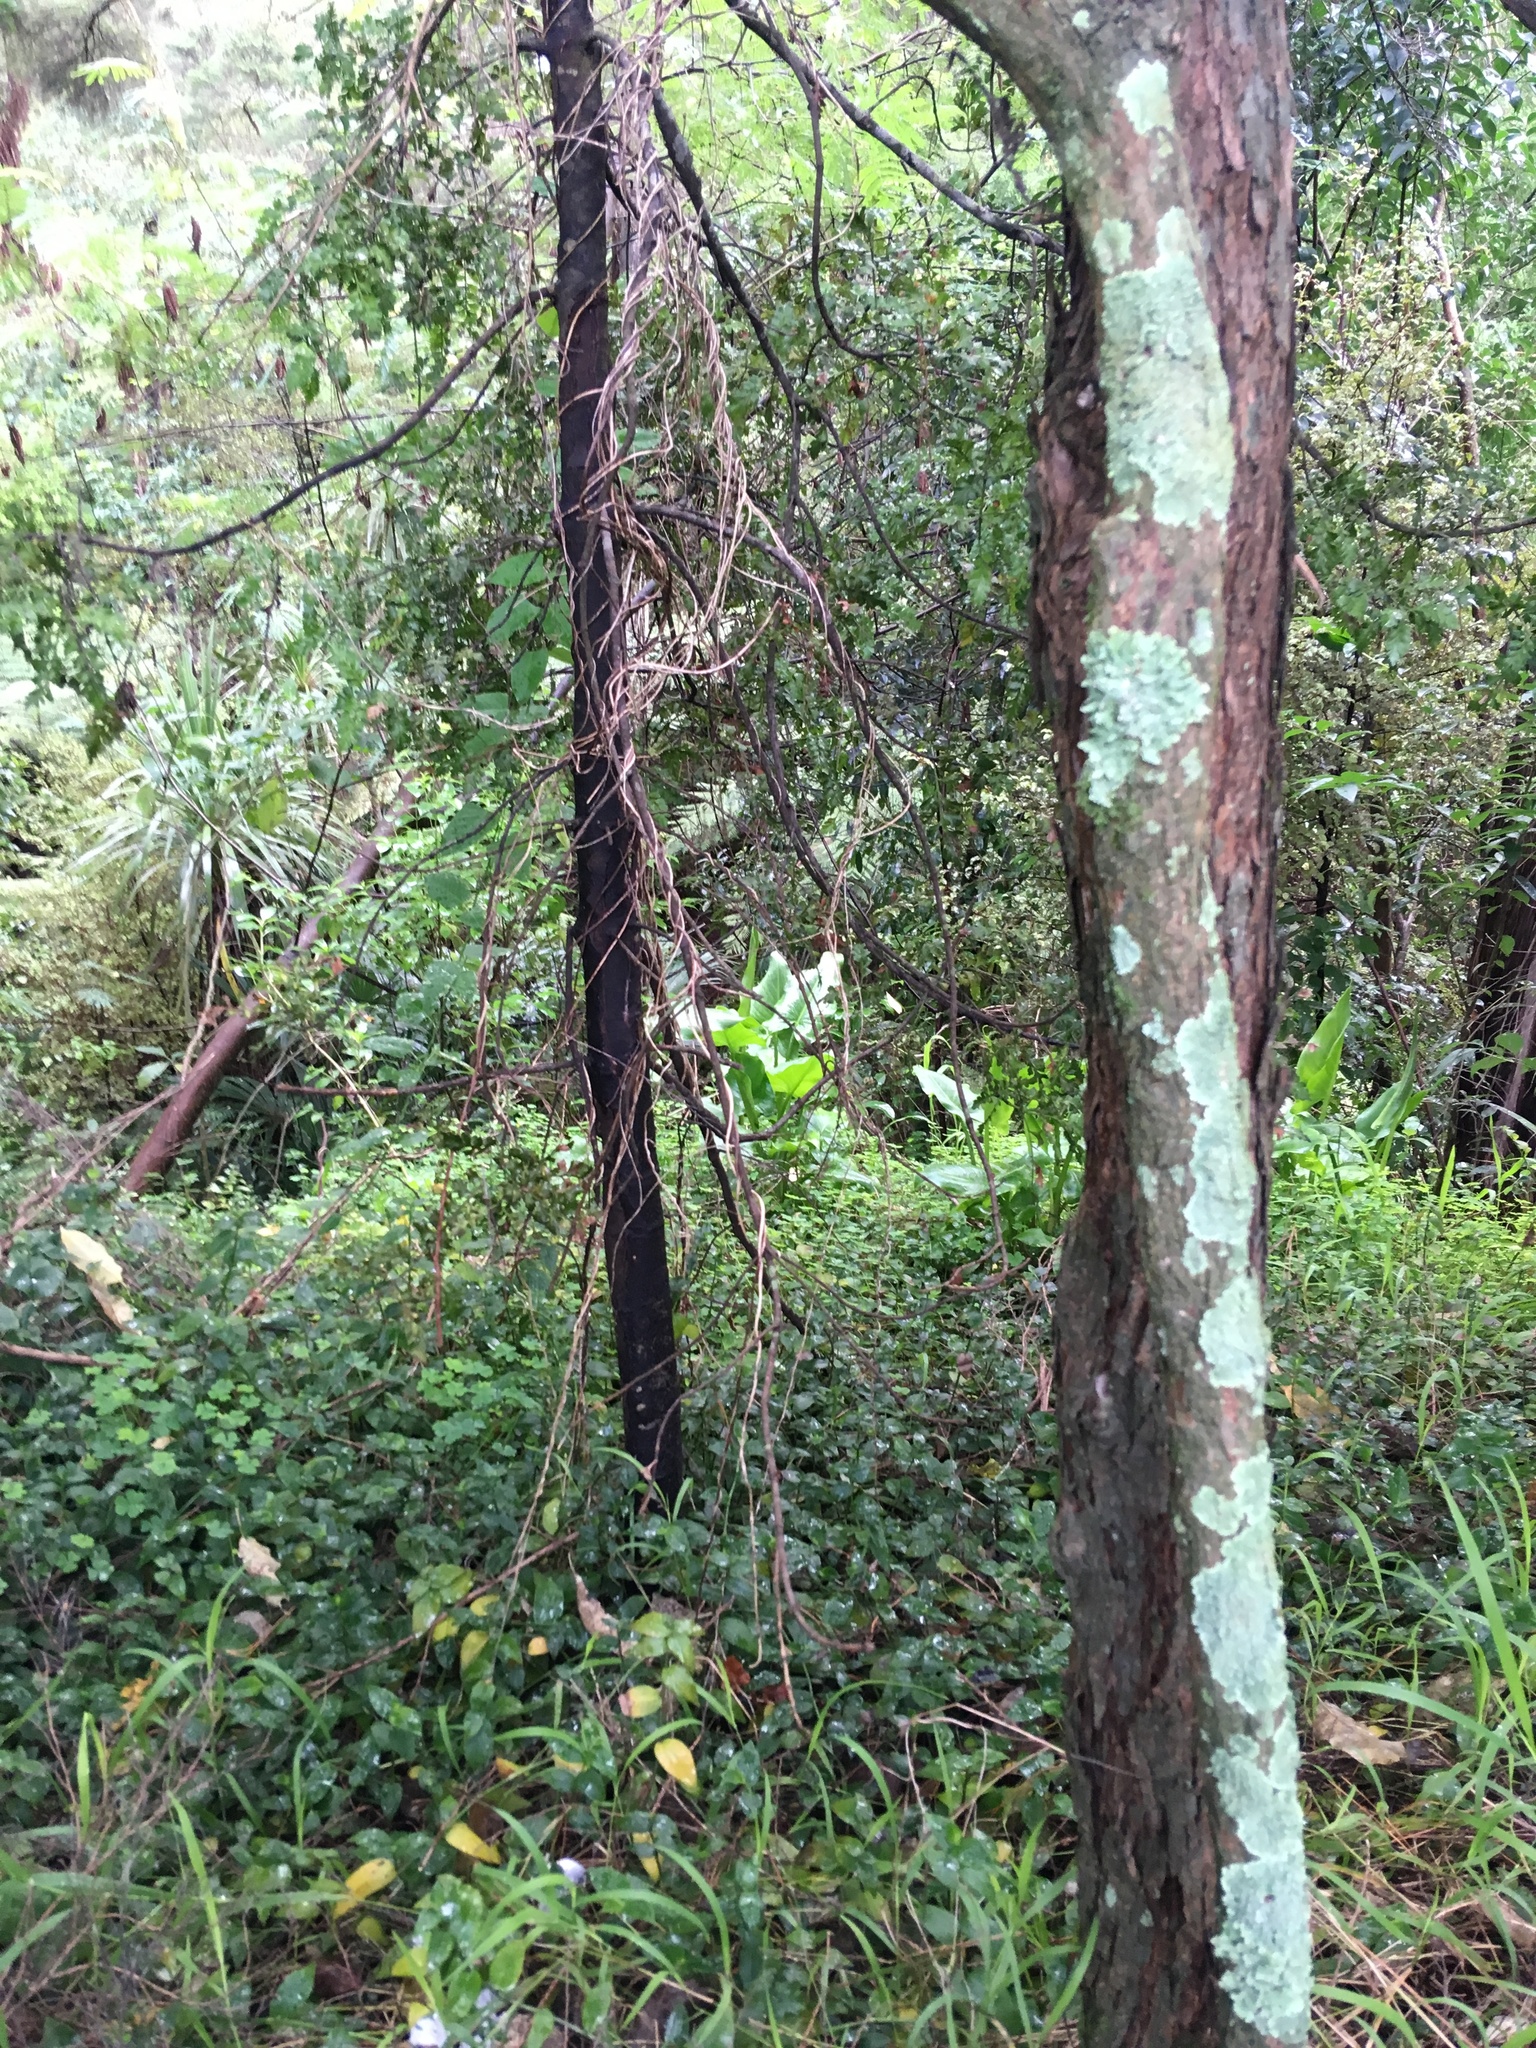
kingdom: Plantae
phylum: Tracheophyta
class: Magnoliopsida
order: Gentianales
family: Apocynaceae
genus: Araujia
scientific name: Araujia sericifera
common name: White bladderflower
